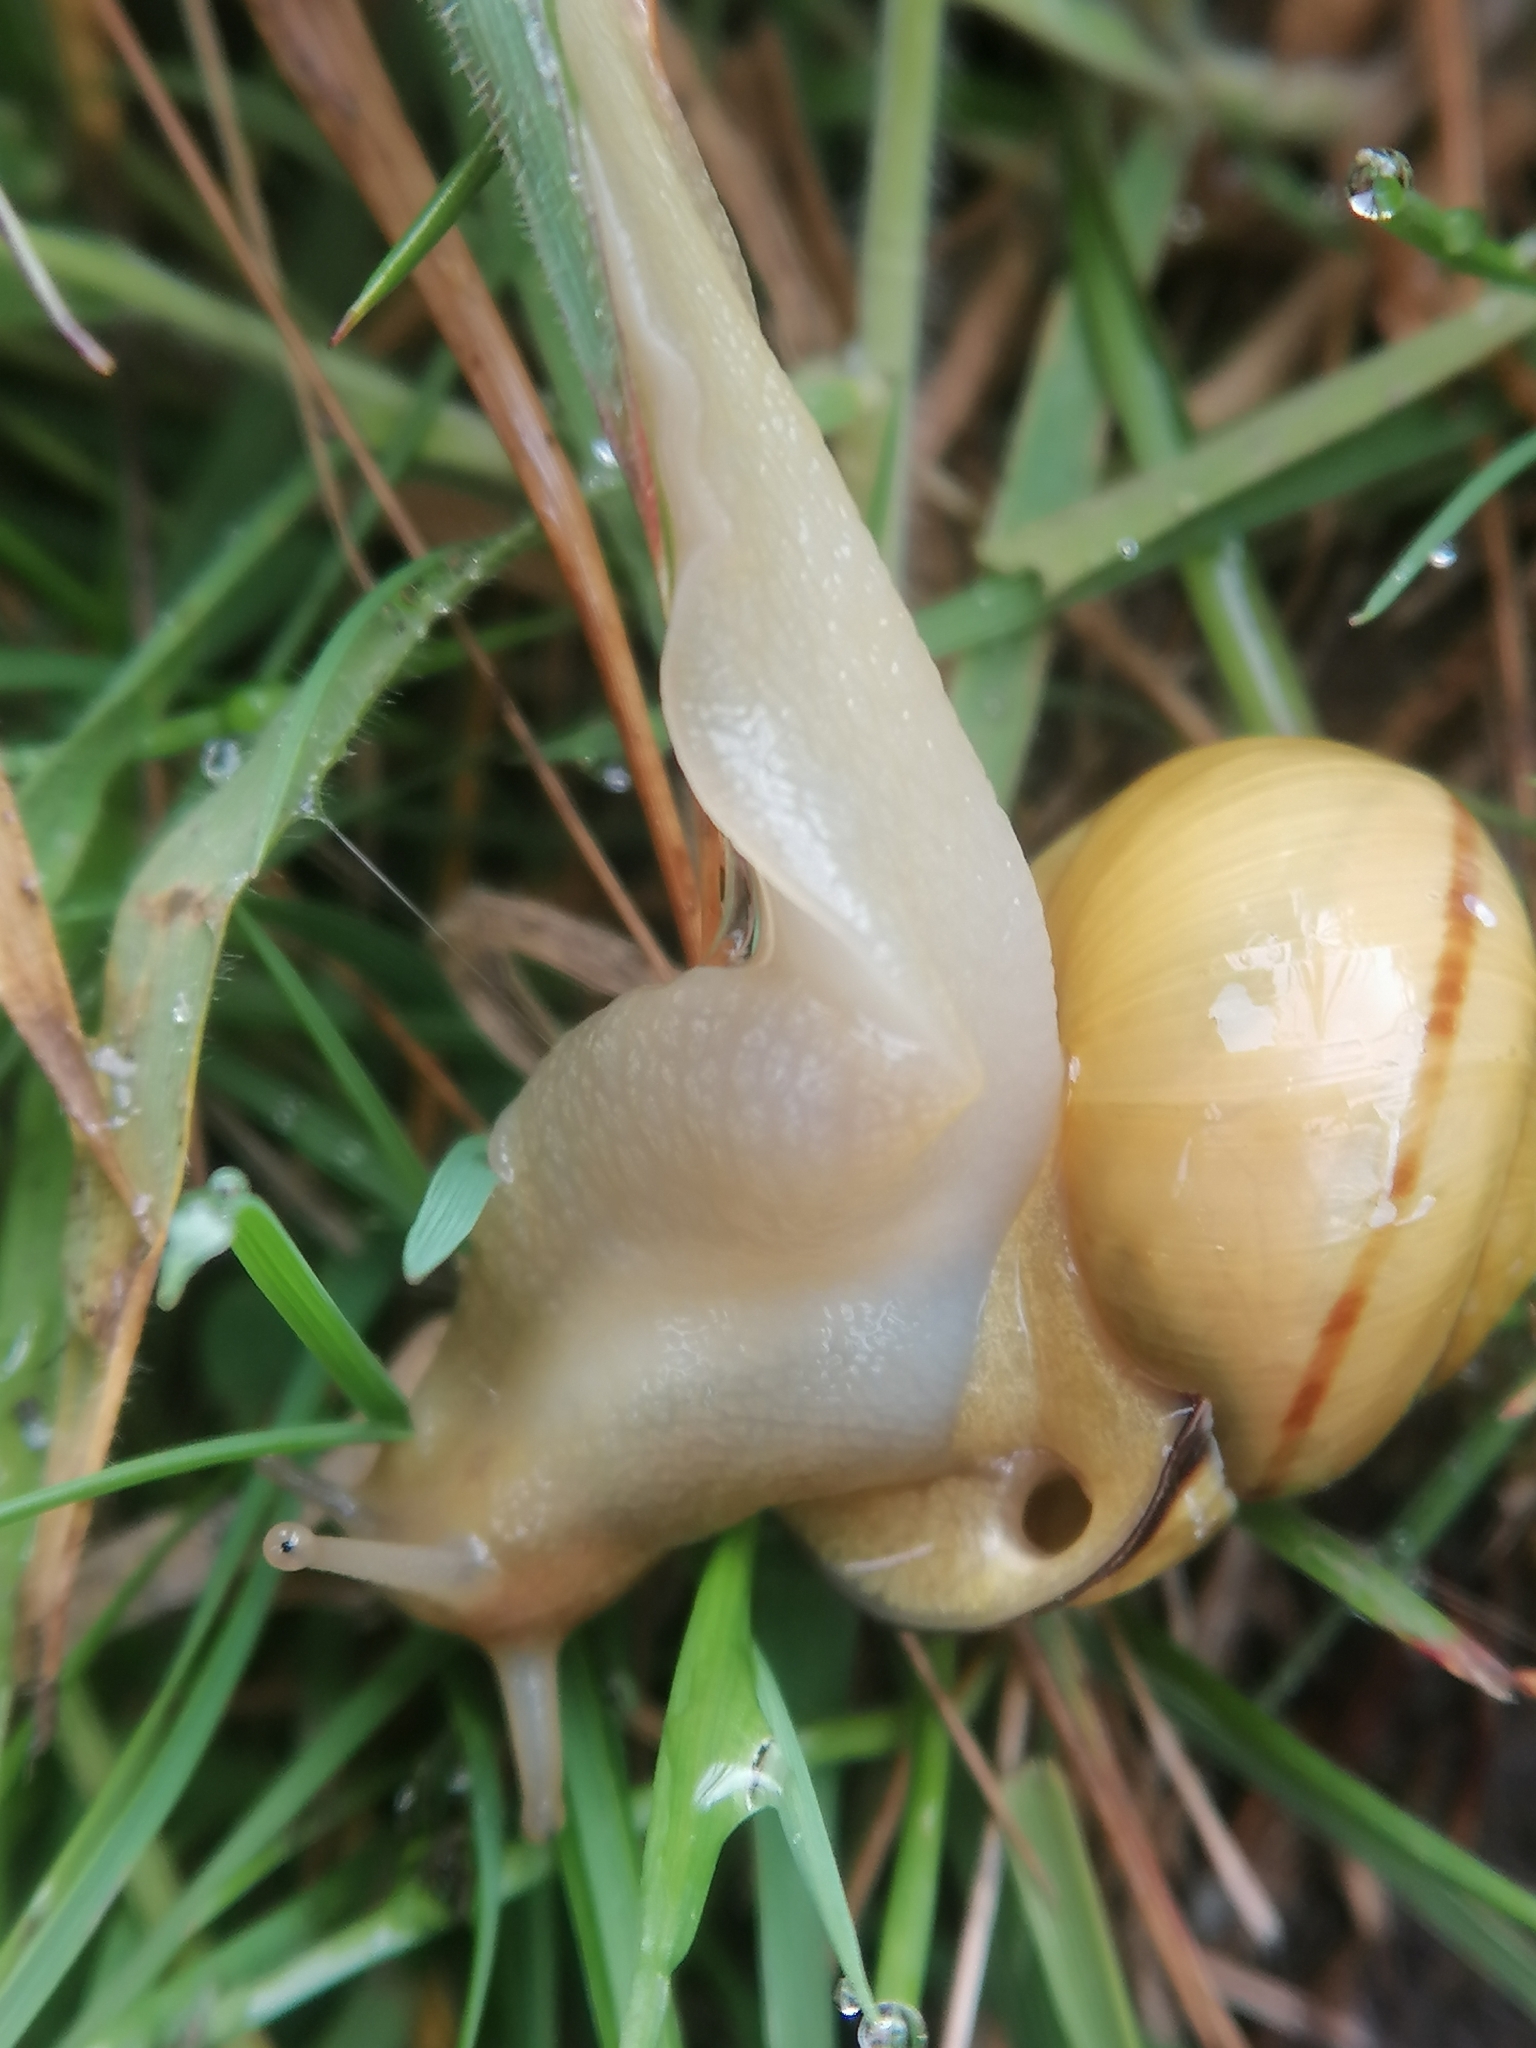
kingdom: Animalia
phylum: Mollusca
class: Gastropoda
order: Stylommatophora
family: Helicidae
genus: Cepaea
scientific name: Cepaea nemoralis
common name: Grovesnail
